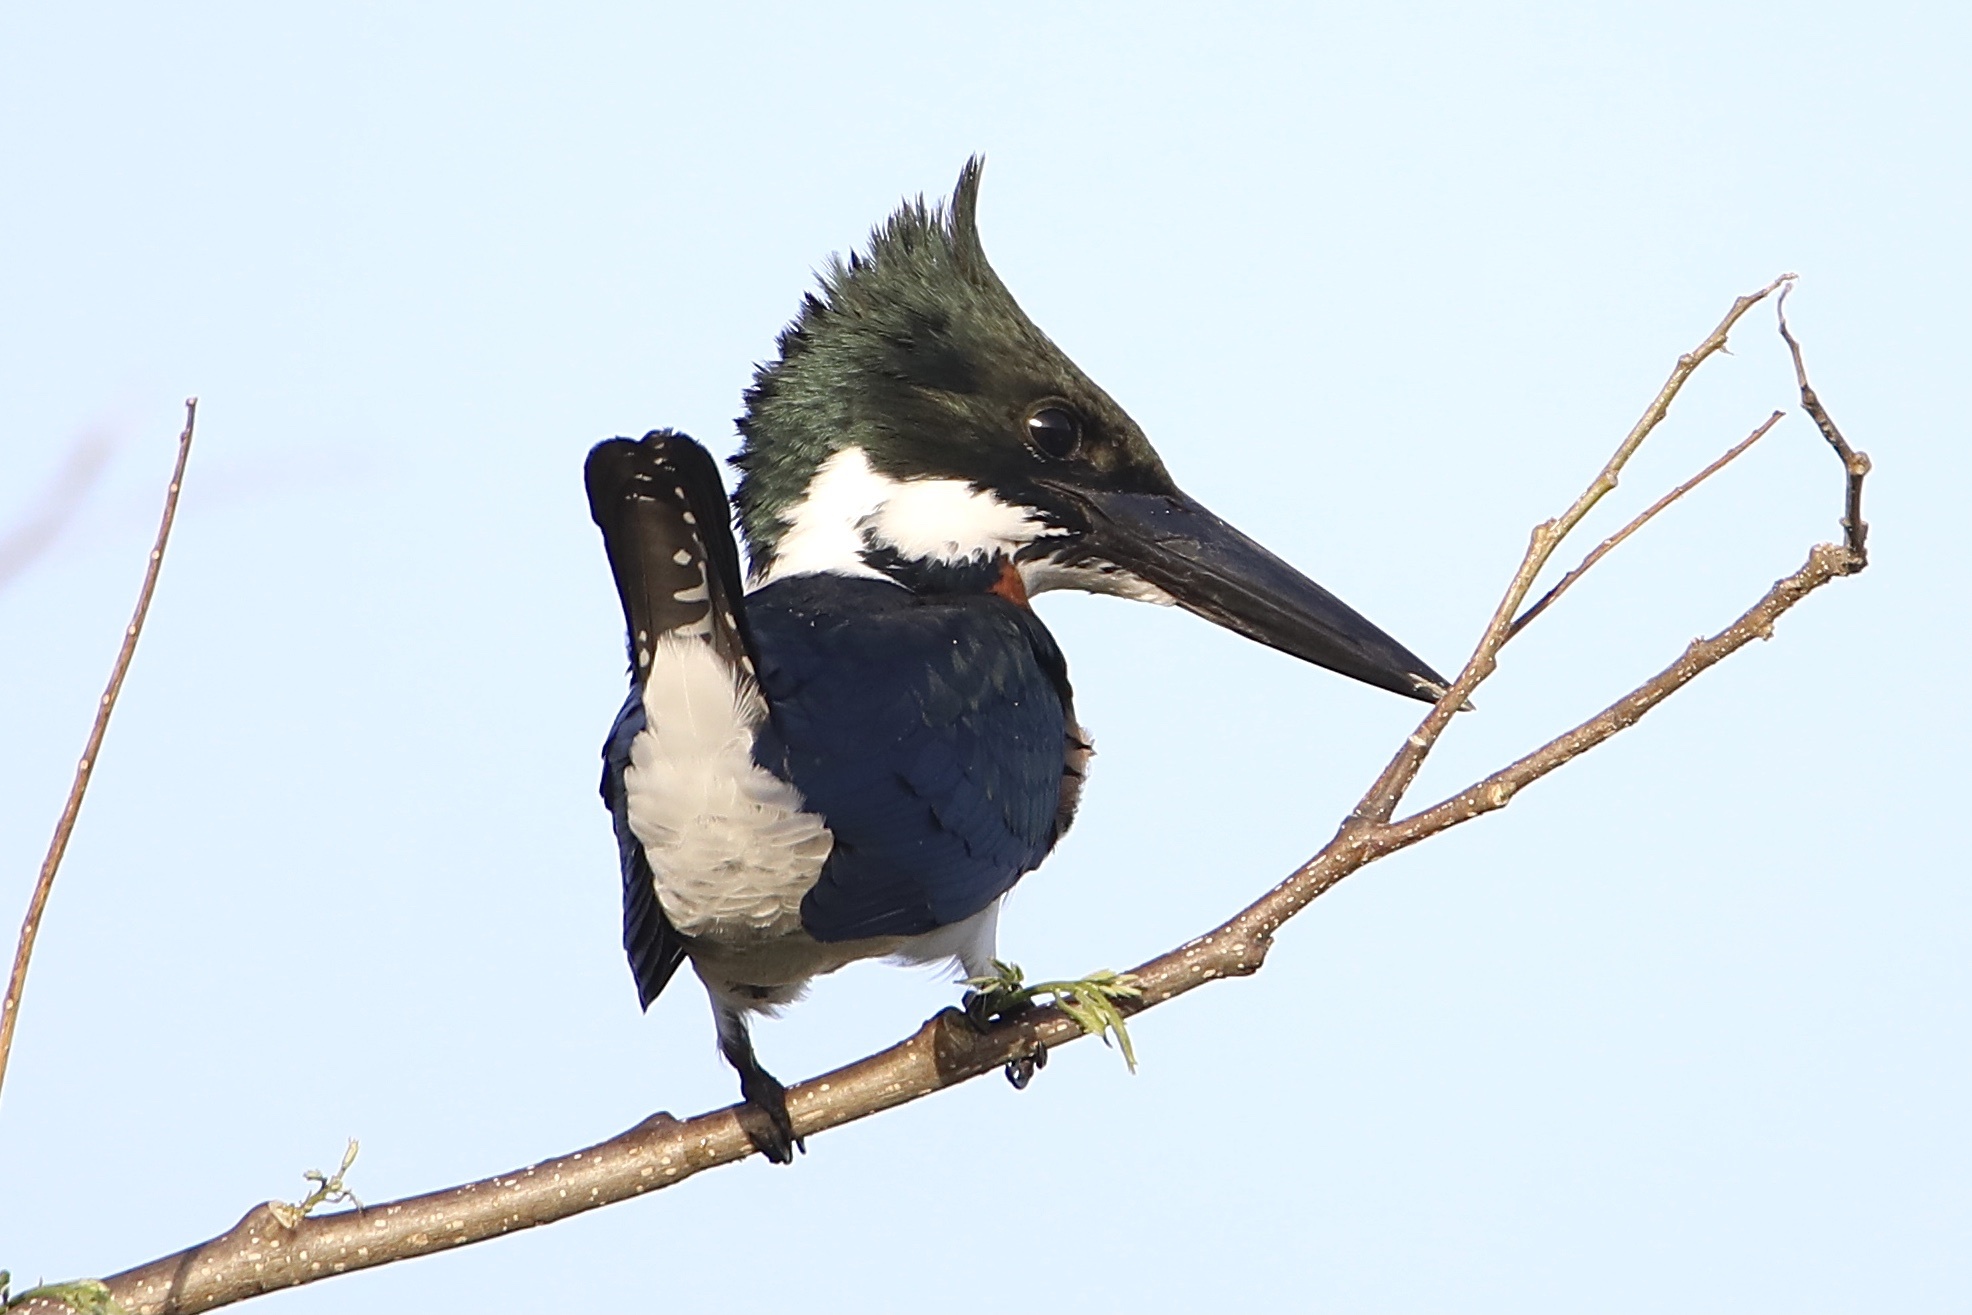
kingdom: Animalia
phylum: Chordata
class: Aves
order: Coraciiformes
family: Alcedinidae
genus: Chloroceryle
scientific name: Chloroceryle amazona
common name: Amazon kingfisher
